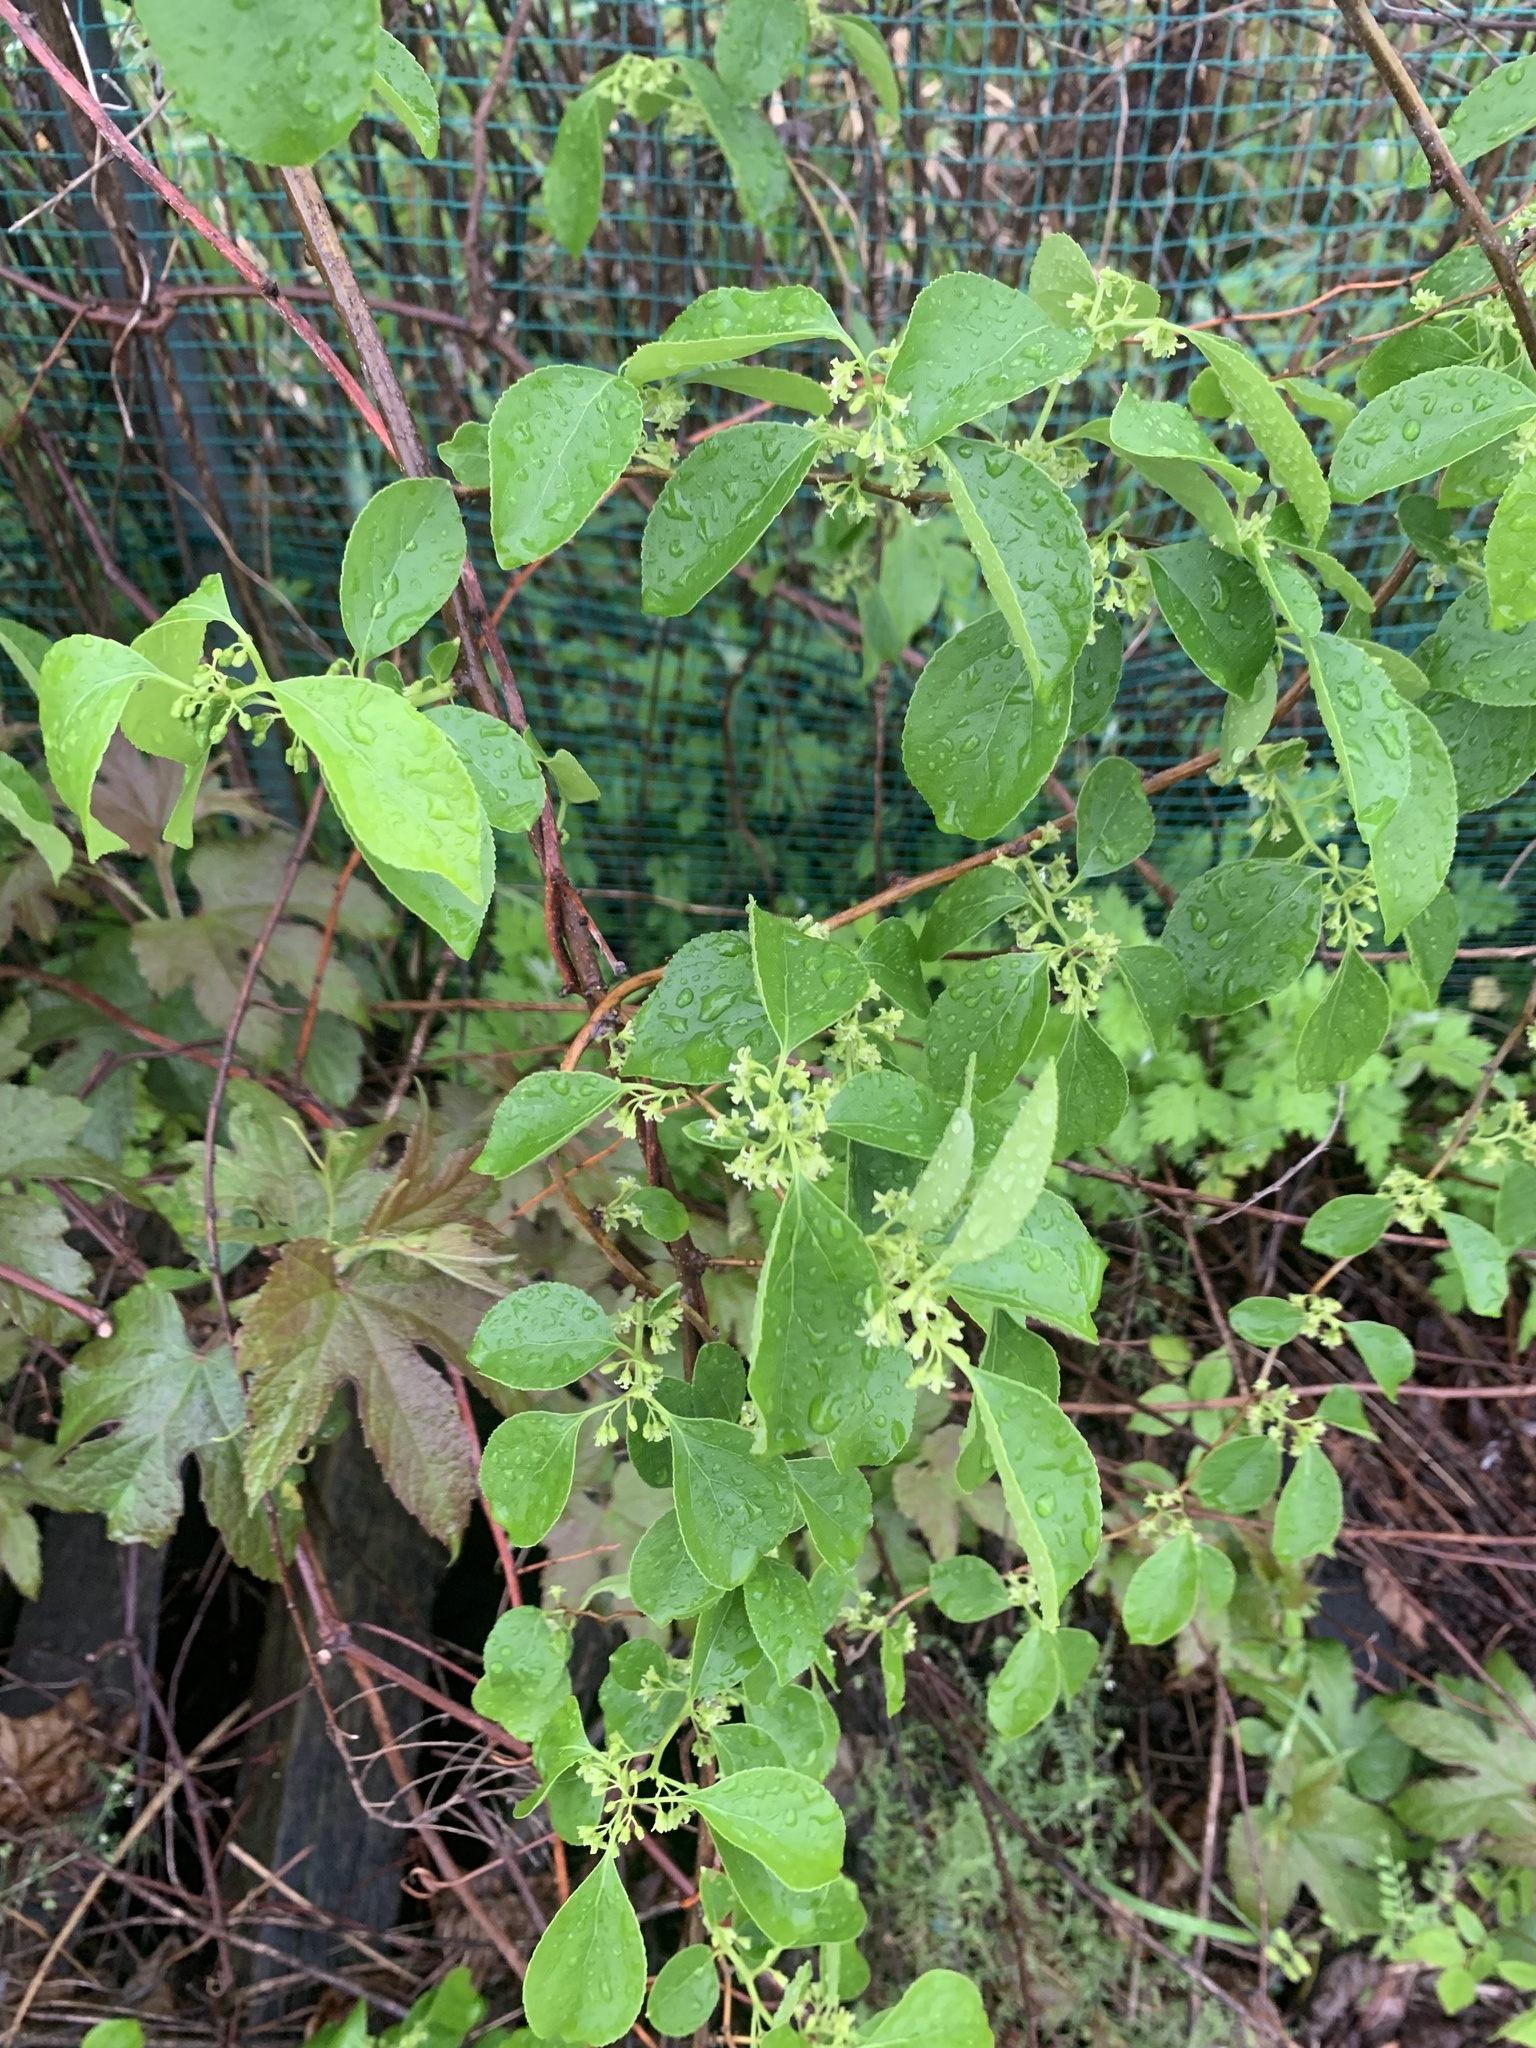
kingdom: Plantae
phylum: Tracheophyta
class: Magnoliopsida
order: Celastrales
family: Celastraceae
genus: Celastrus
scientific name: Celastrus orbiculatus
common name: Oriental bittersweet
